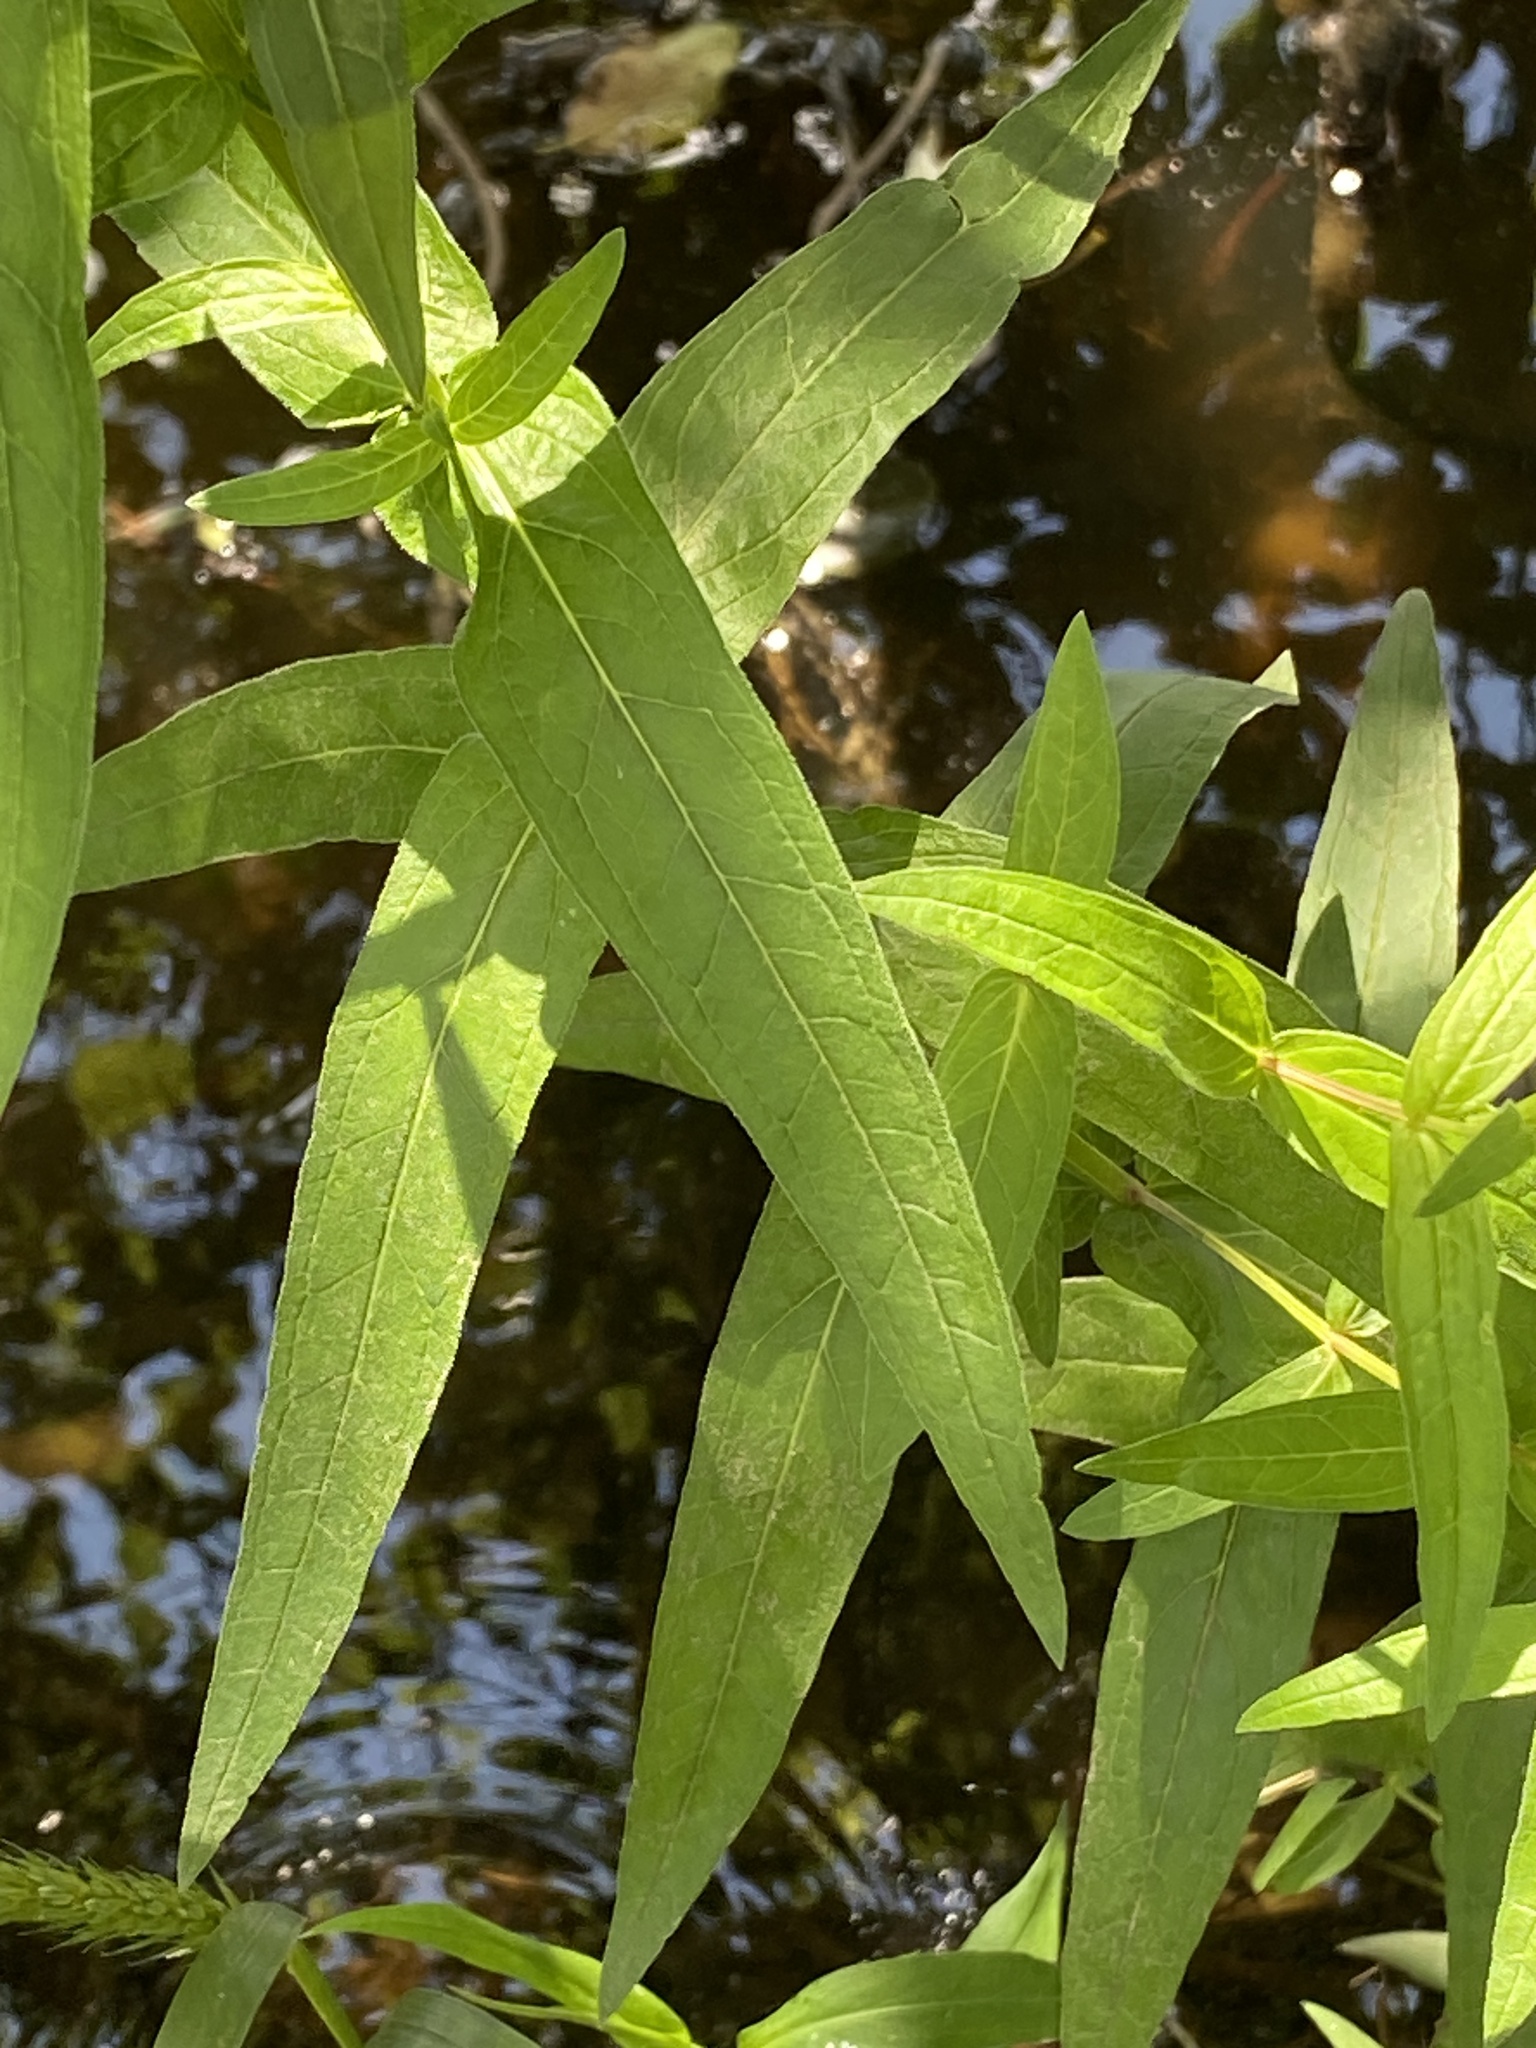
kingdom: Plantae
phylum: Tracheophyta
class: Magnoliopsida
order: Myrtales
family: Lythraceae
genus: Lythrum
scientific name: Lythrum salicaria
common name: Purple loosestrife
